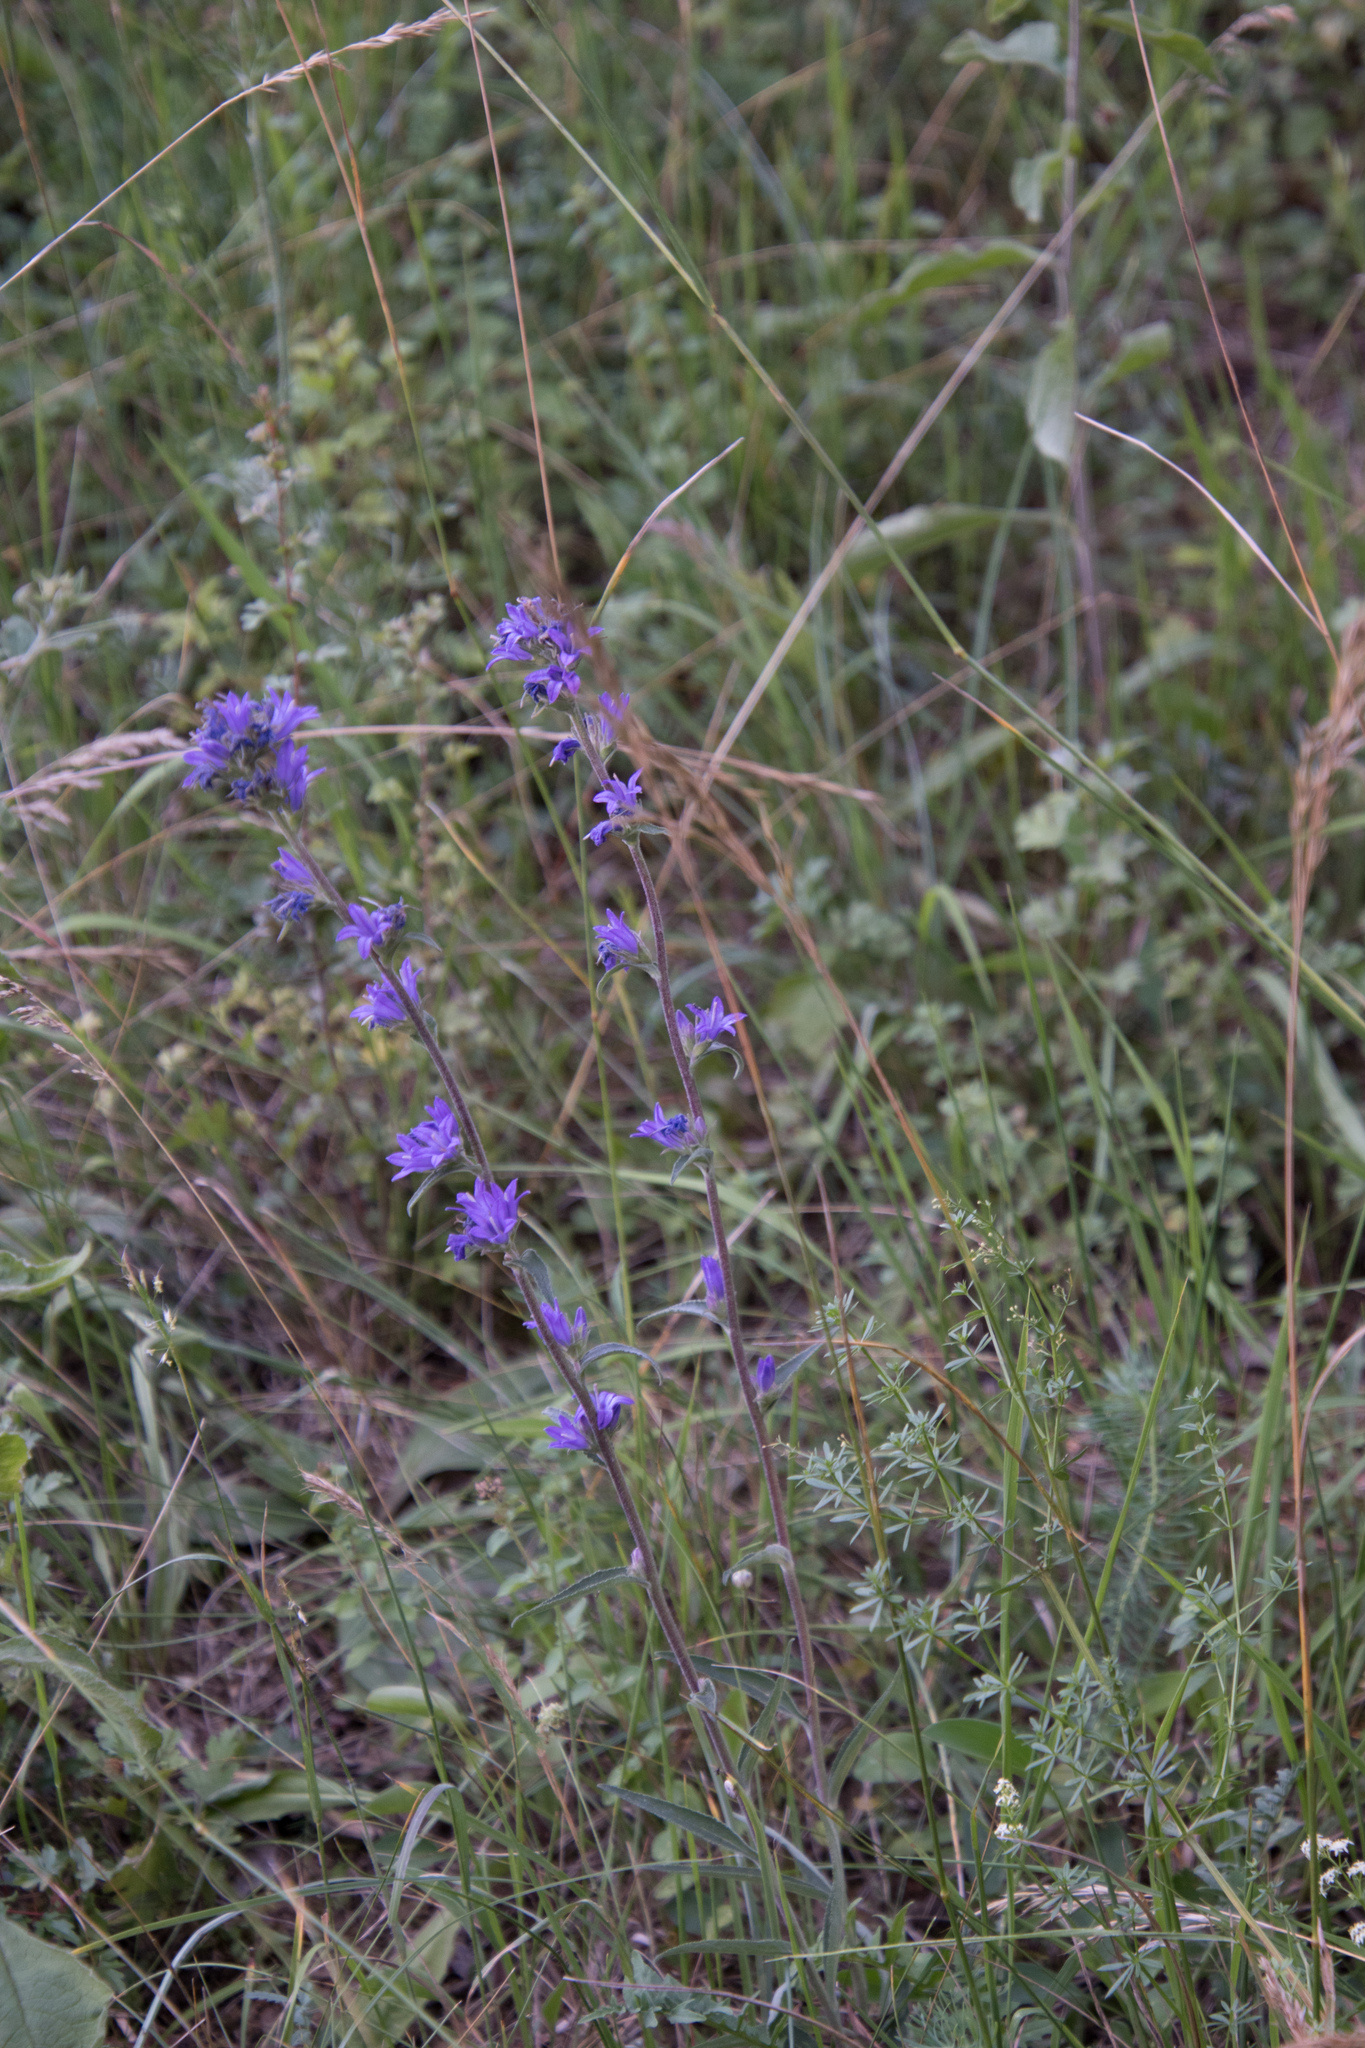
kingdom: Plantae
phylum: Tracheophyta
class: Magnoliopsida
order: Asterales
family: Campanulaceae
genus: Campanula
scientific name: Campanula glomerata
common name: Clustered bellflower
